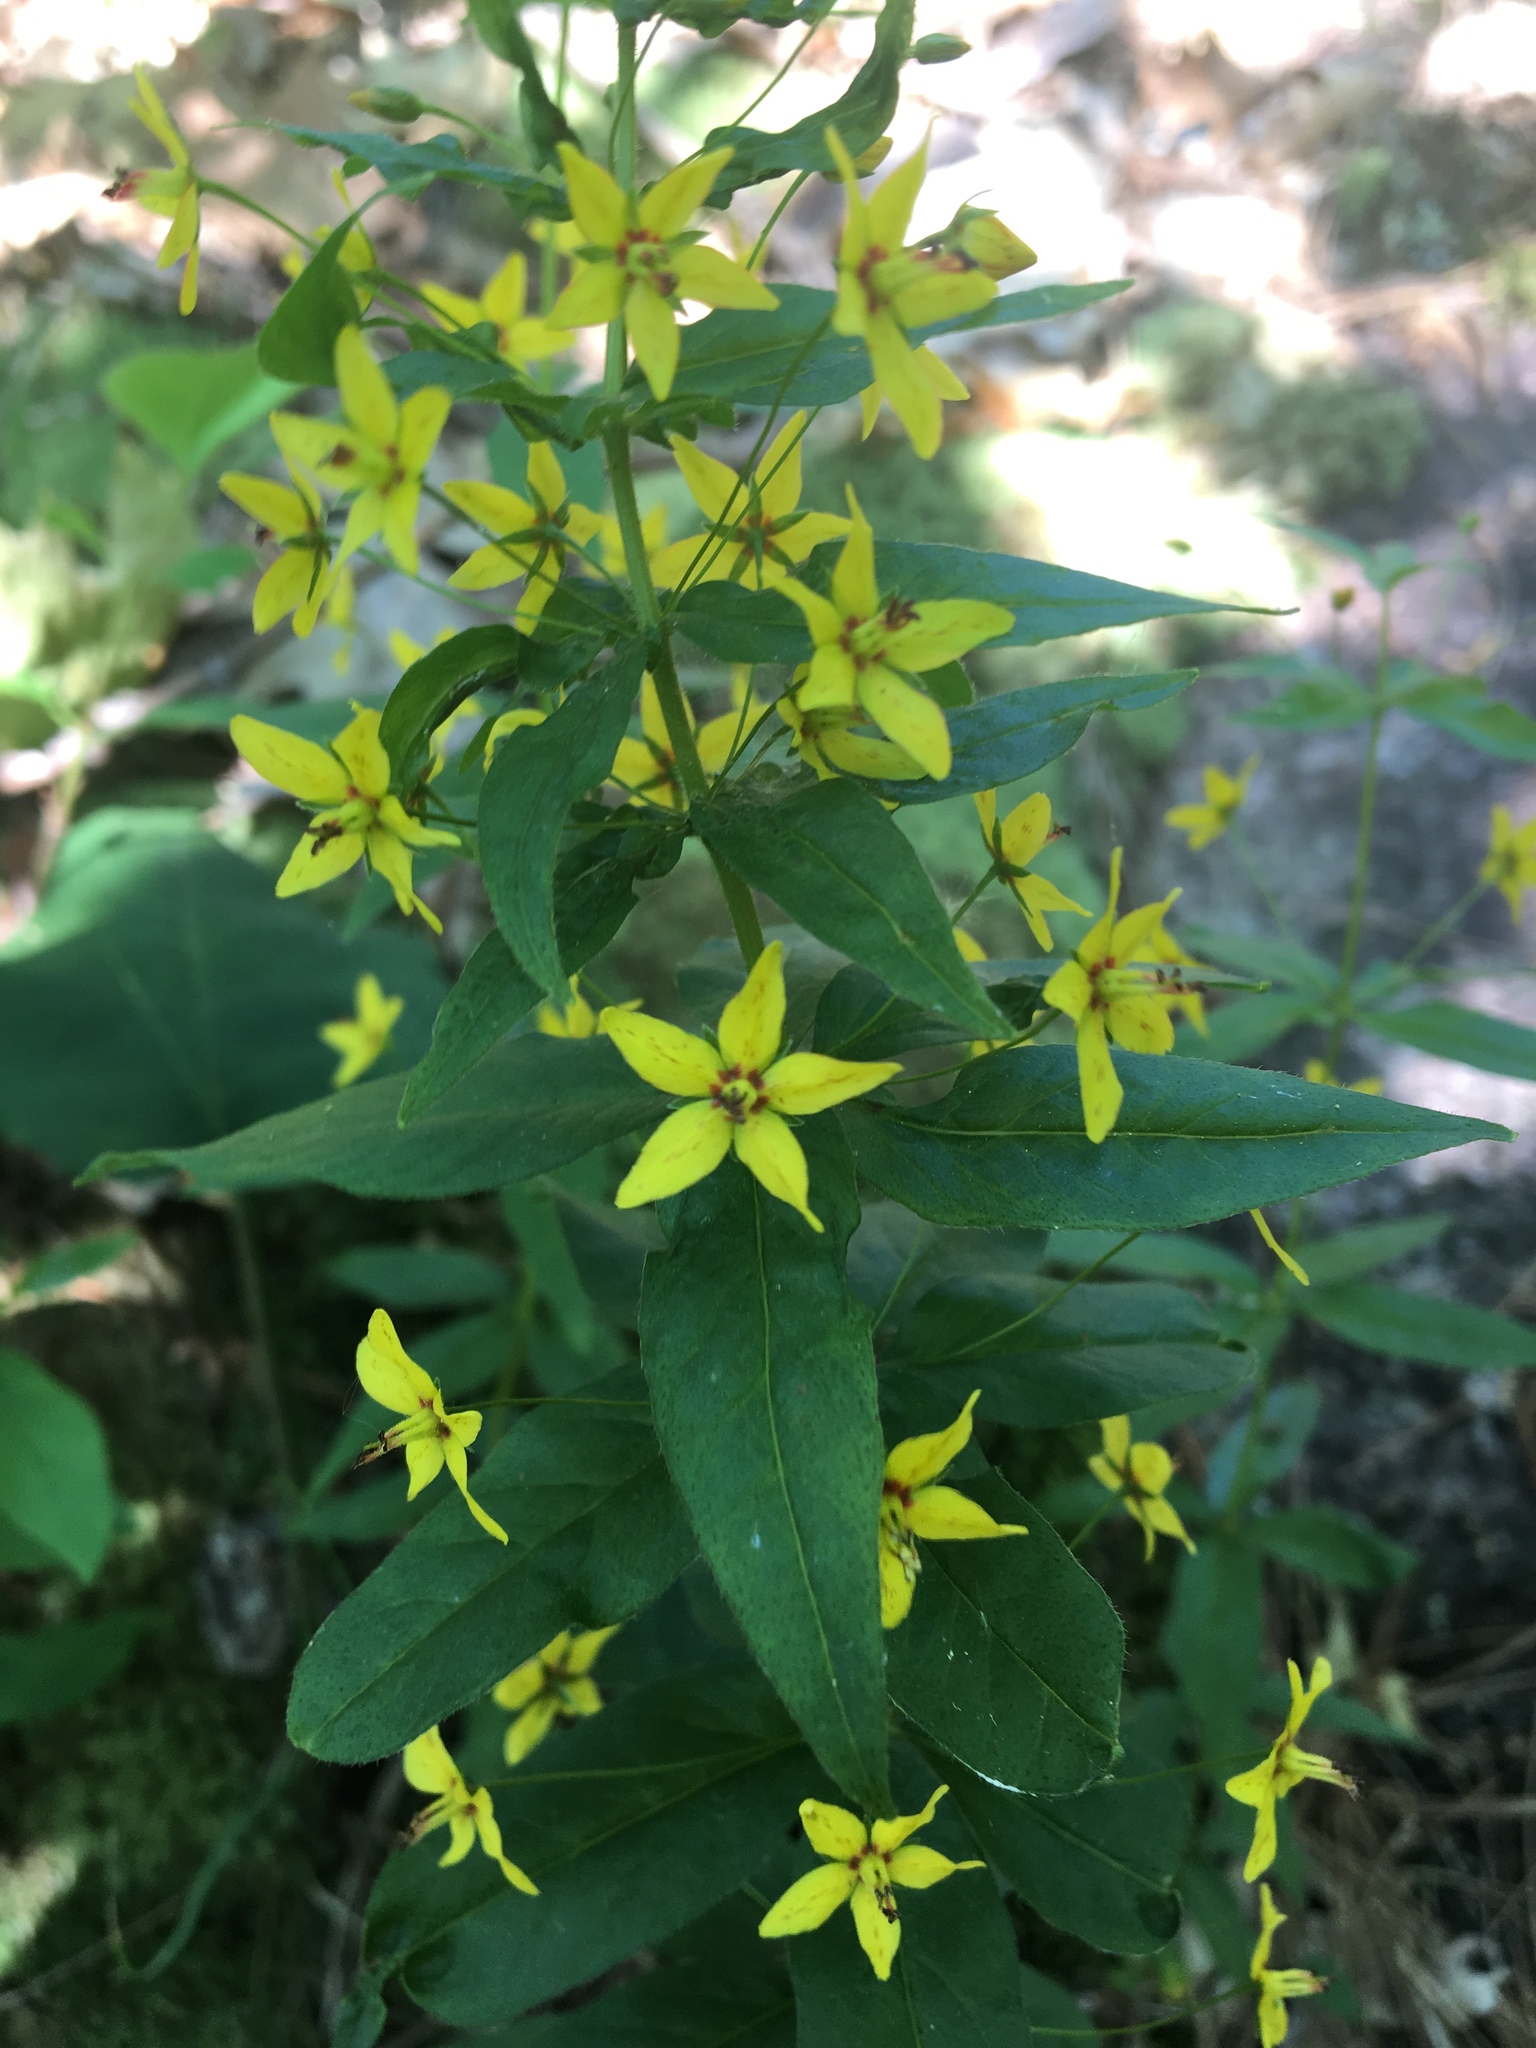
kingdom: Plantae
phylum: Tracheophyta
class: Magnoliopsida
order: Ericales
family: Primulaceae
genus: Lysimachia
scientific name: Lysimachia quadrifolia
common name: Whorled loosestrife
